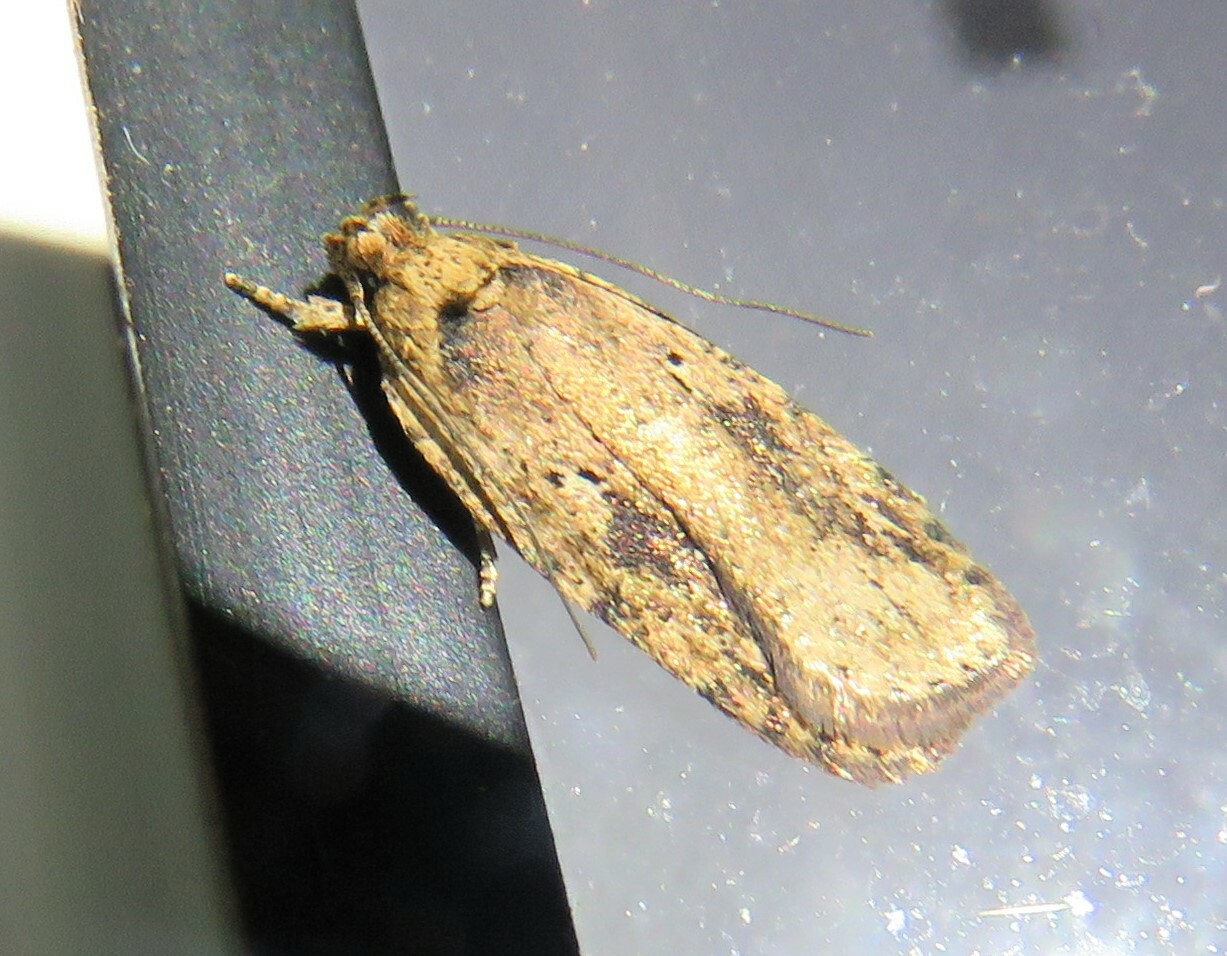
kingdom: Animalia
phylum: Arthropoda
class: Insecta
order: Lepidoptera
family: Depressariidae
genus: Agonopterix
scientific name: Agonopterix pulvipennella
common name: Goldenrod leafffolder
